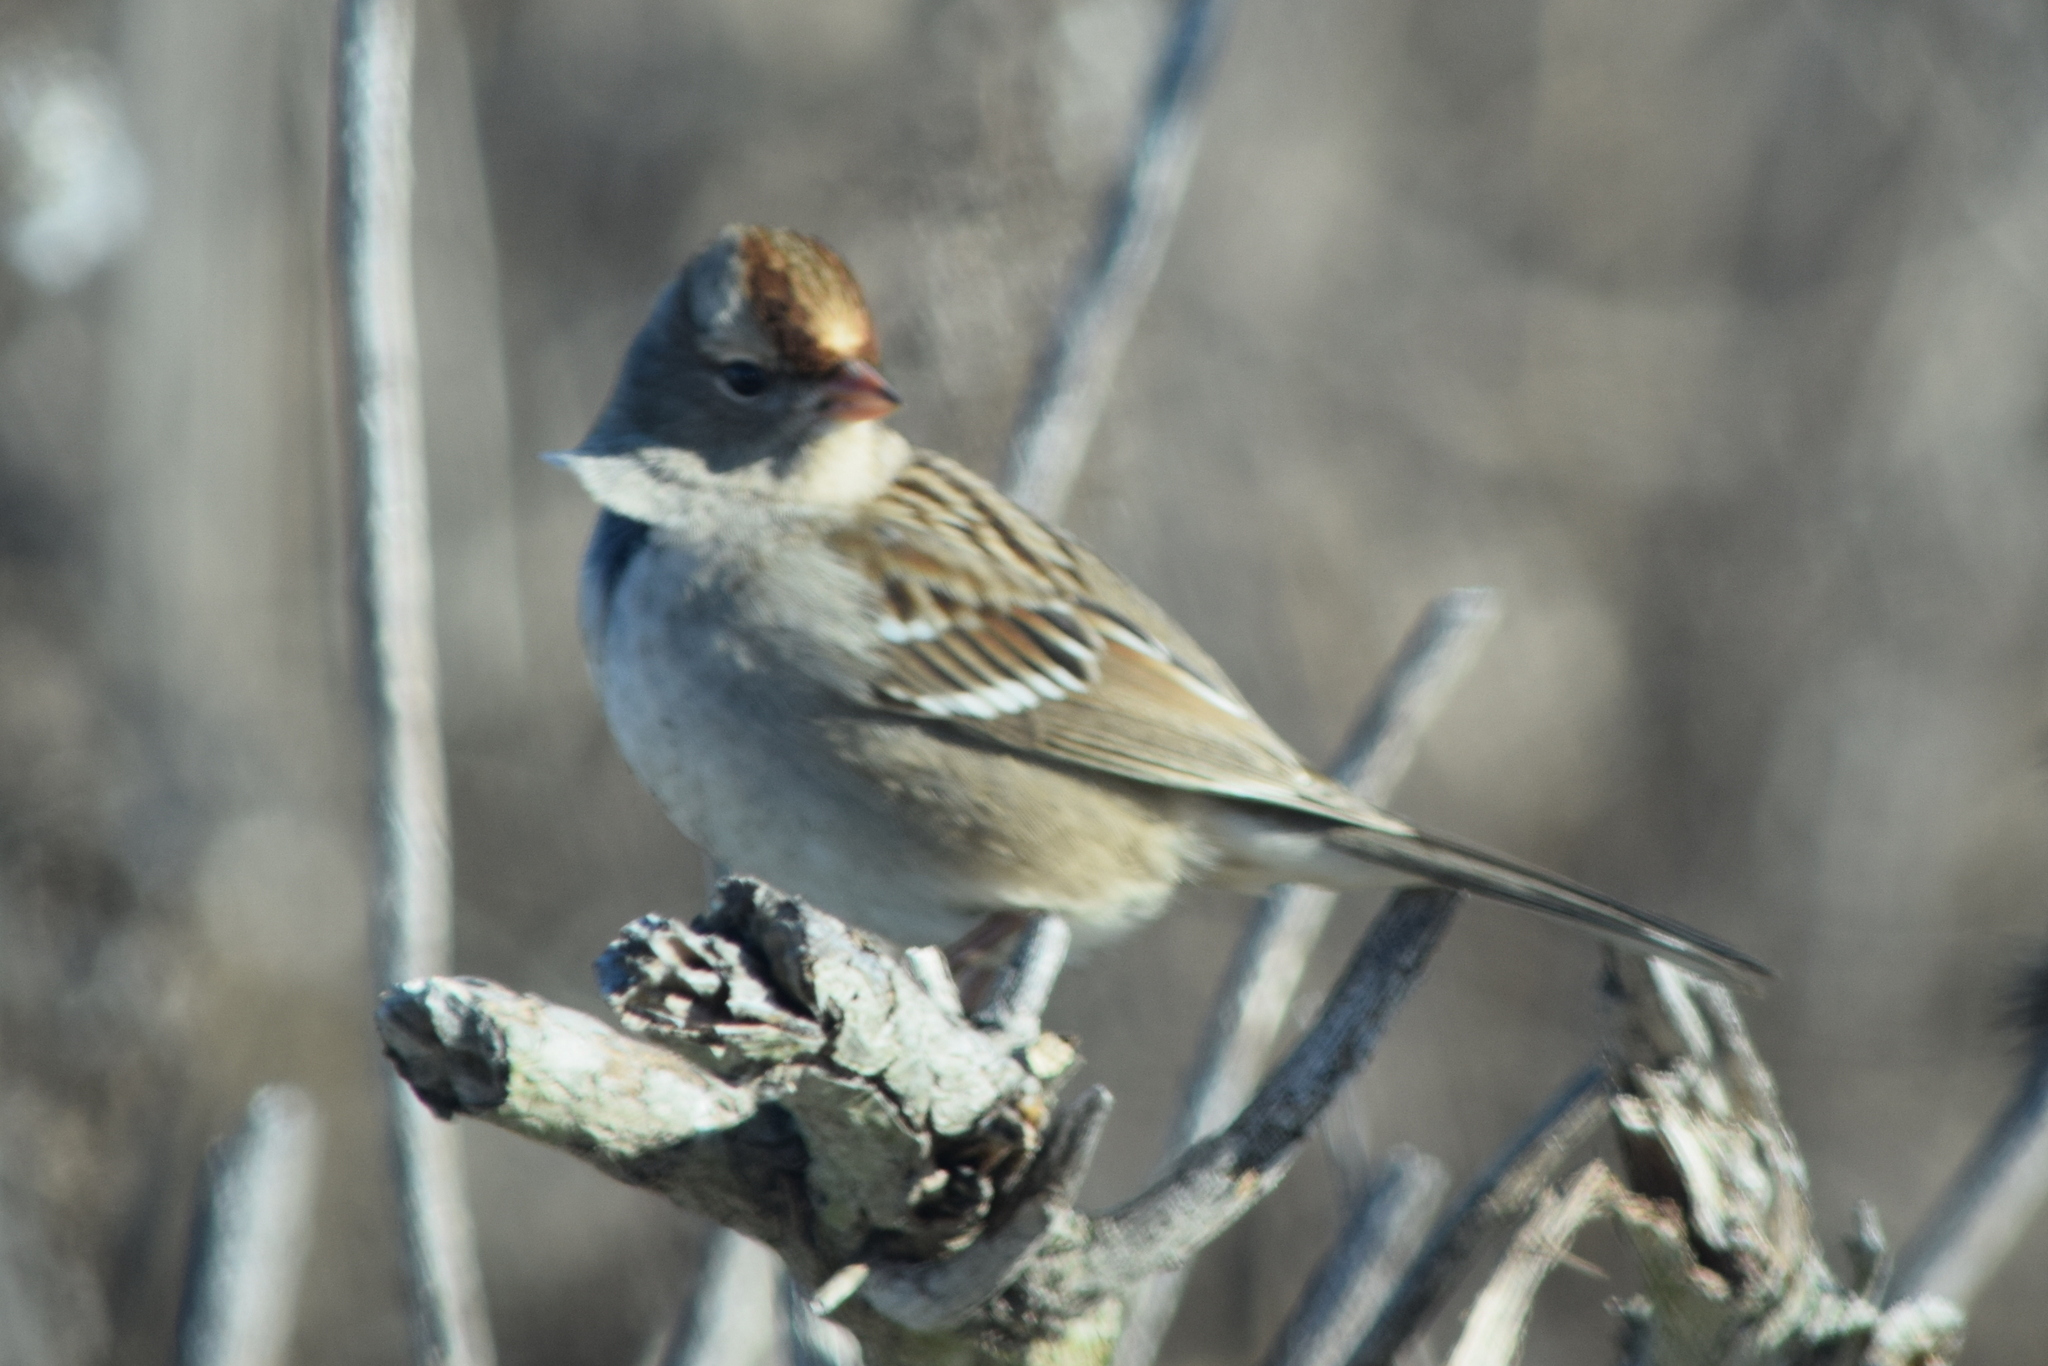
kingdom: Animalia
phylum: Chordata
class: Aves
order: Passeriformes
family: Passerellidae
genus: Zonotrichia
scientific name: Zonotrichia leucophrys
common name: White-crowned sparrow
